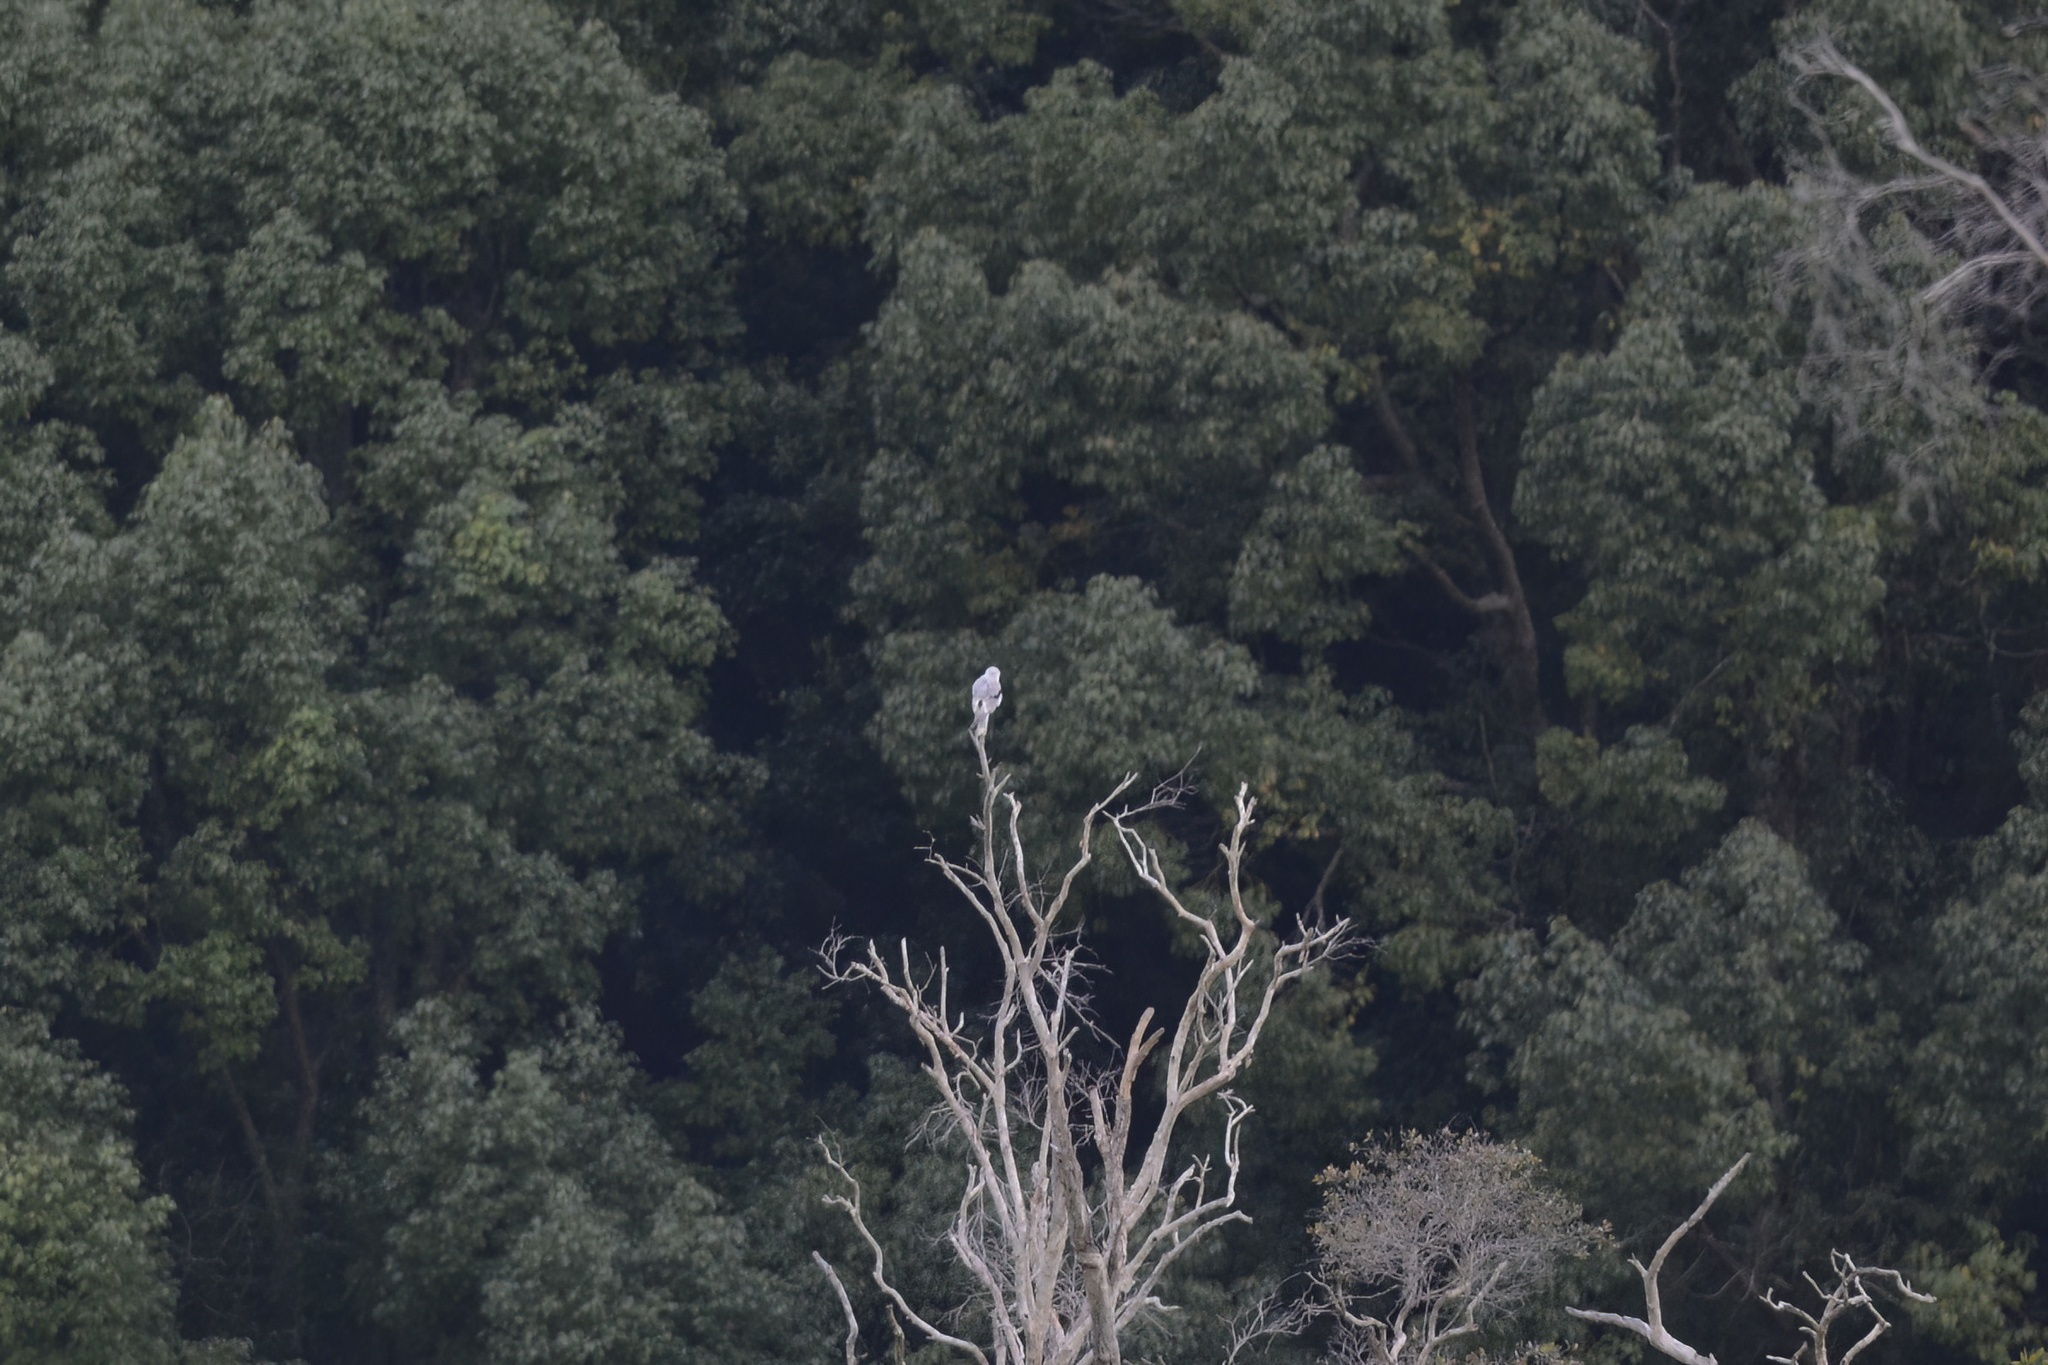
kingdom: Animalia
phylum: Chordata
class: Aves
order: Accipitriformes
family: Accipitridae
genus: Elanus
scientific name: Elanus axillaris
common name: Black-shouldered kite
